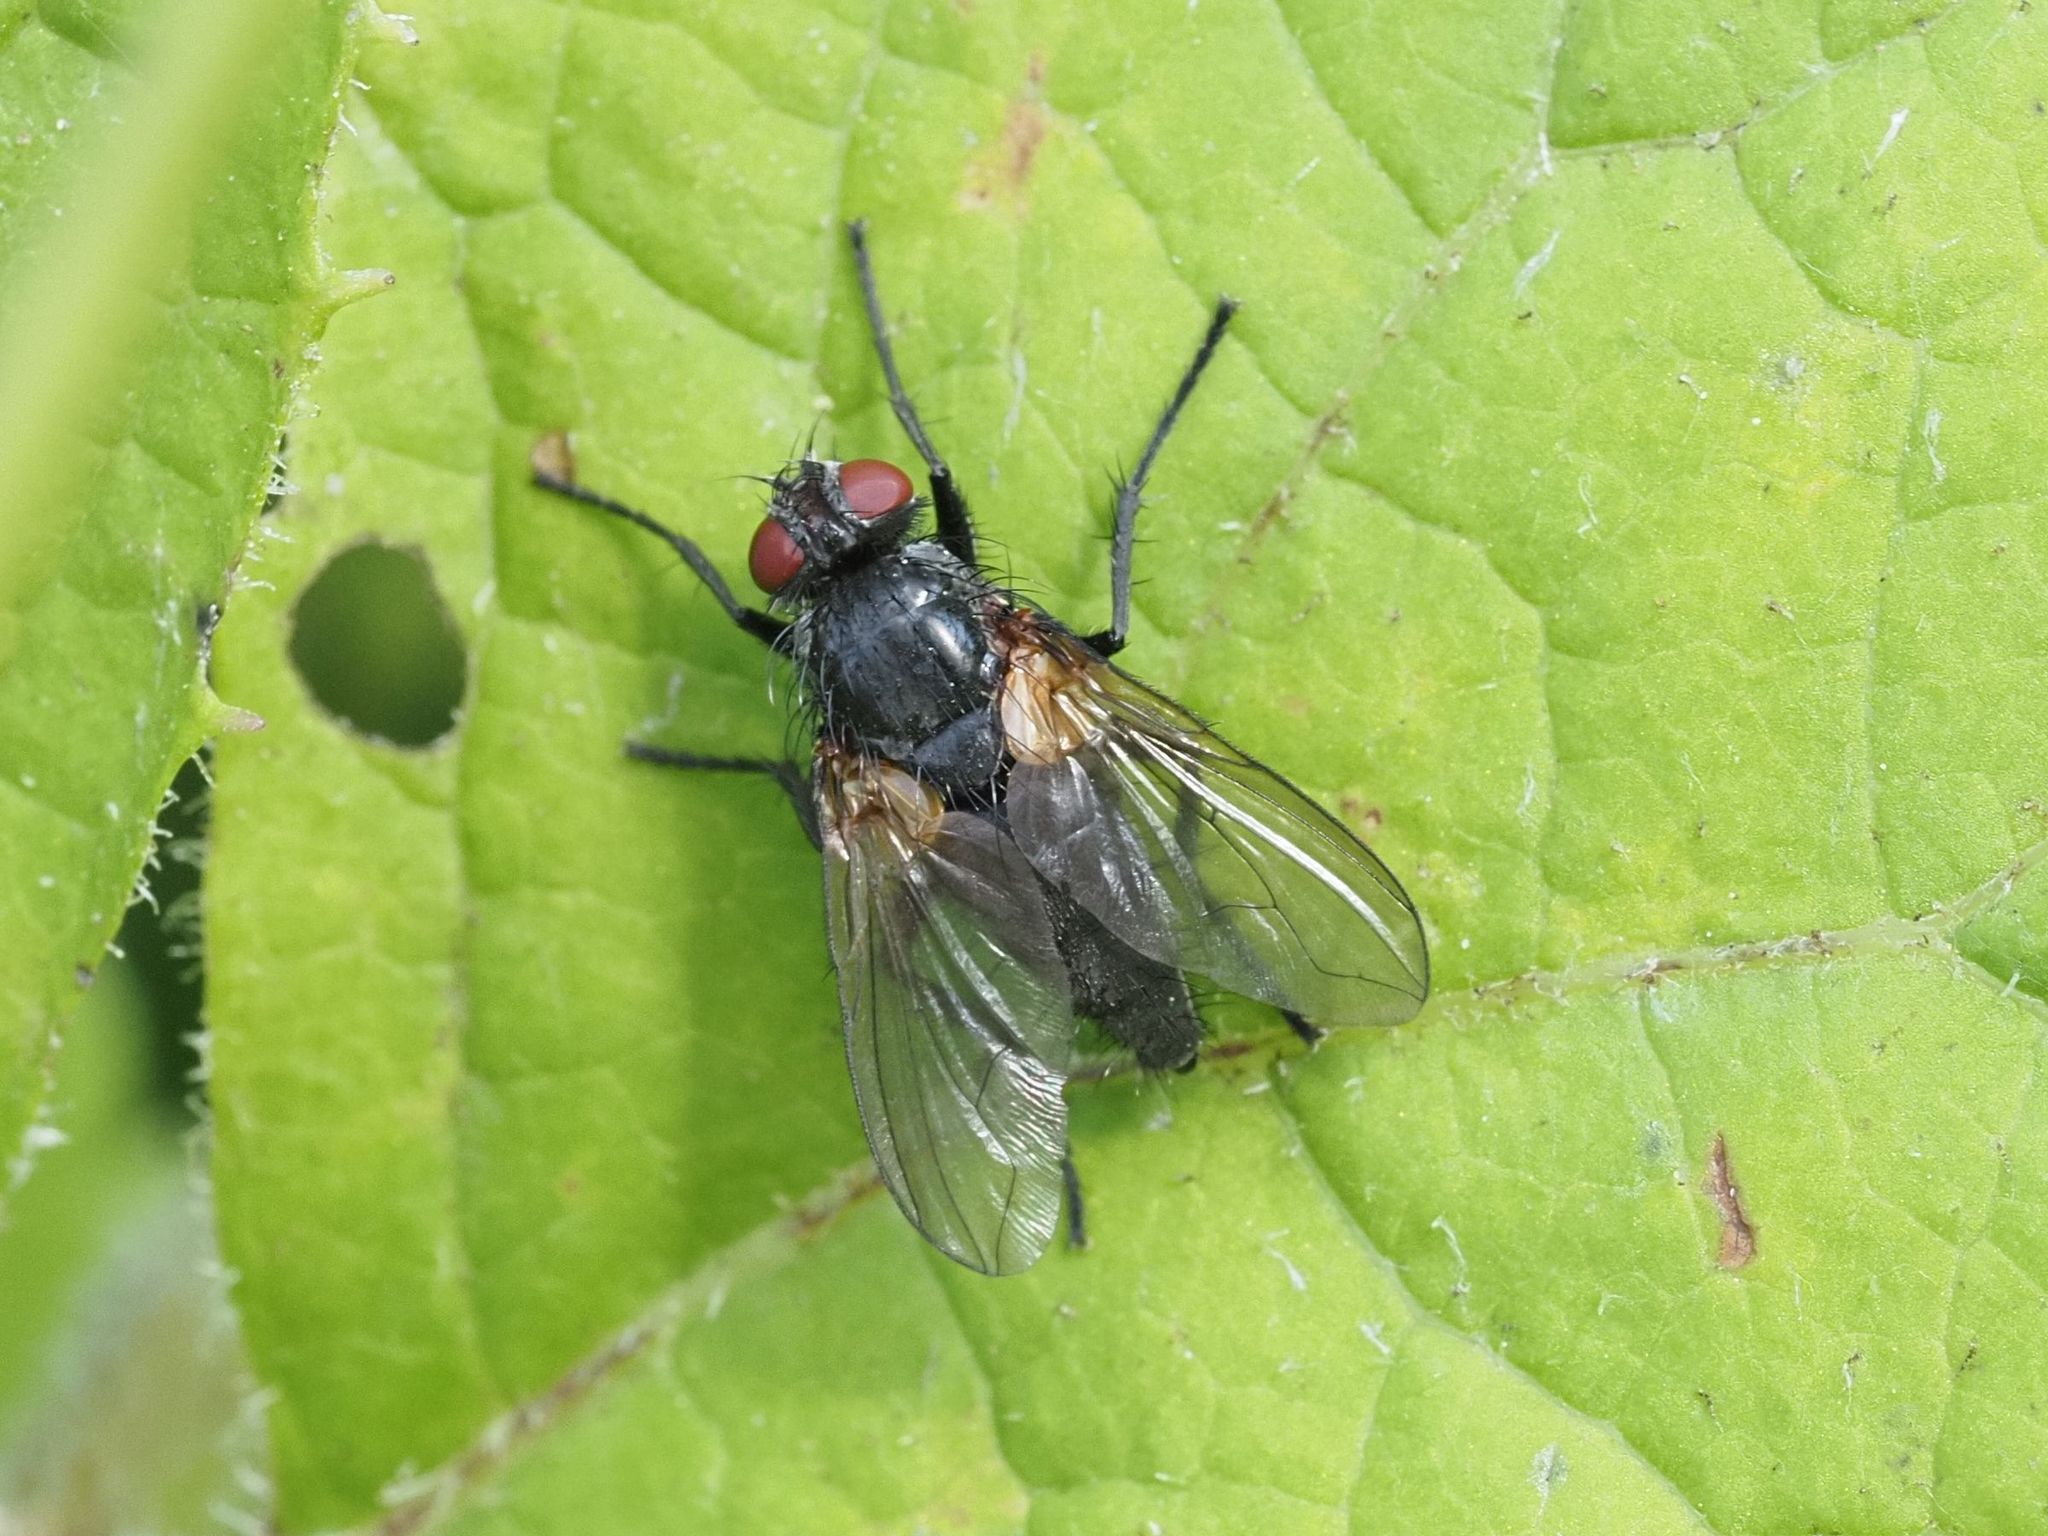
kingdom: Animalia
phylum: Arthropoda
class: Insecta
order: Diptera
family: Calliphoridae
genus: Eggisops
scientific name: Eggisops pecchiolii
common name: False woodlouse-fly
